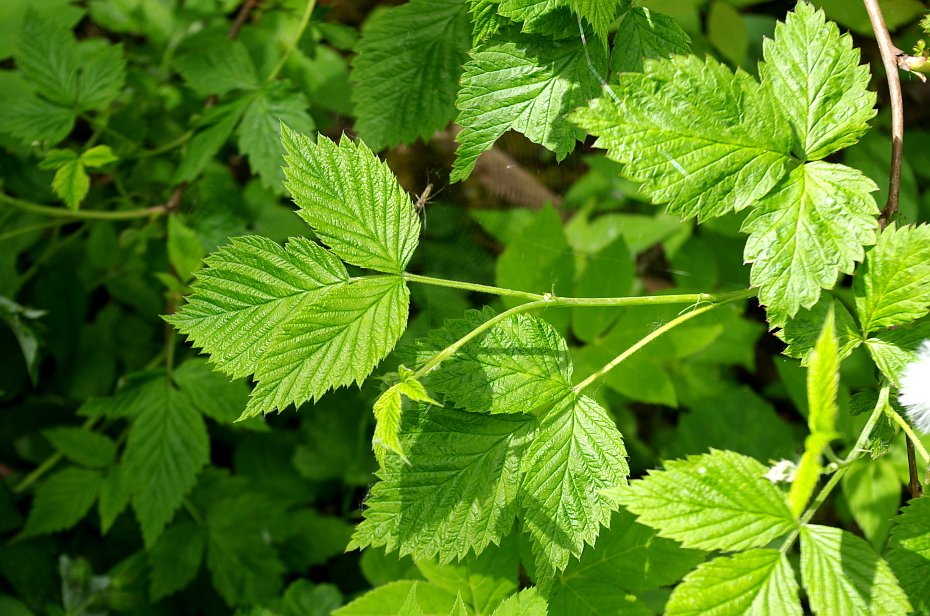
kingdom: Plantae
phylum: Tracheophyta
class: Magnoliopsida
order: Rosales
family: Rosaceae
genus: Rubus
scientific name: Rubus idaeus
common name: Raspberry
